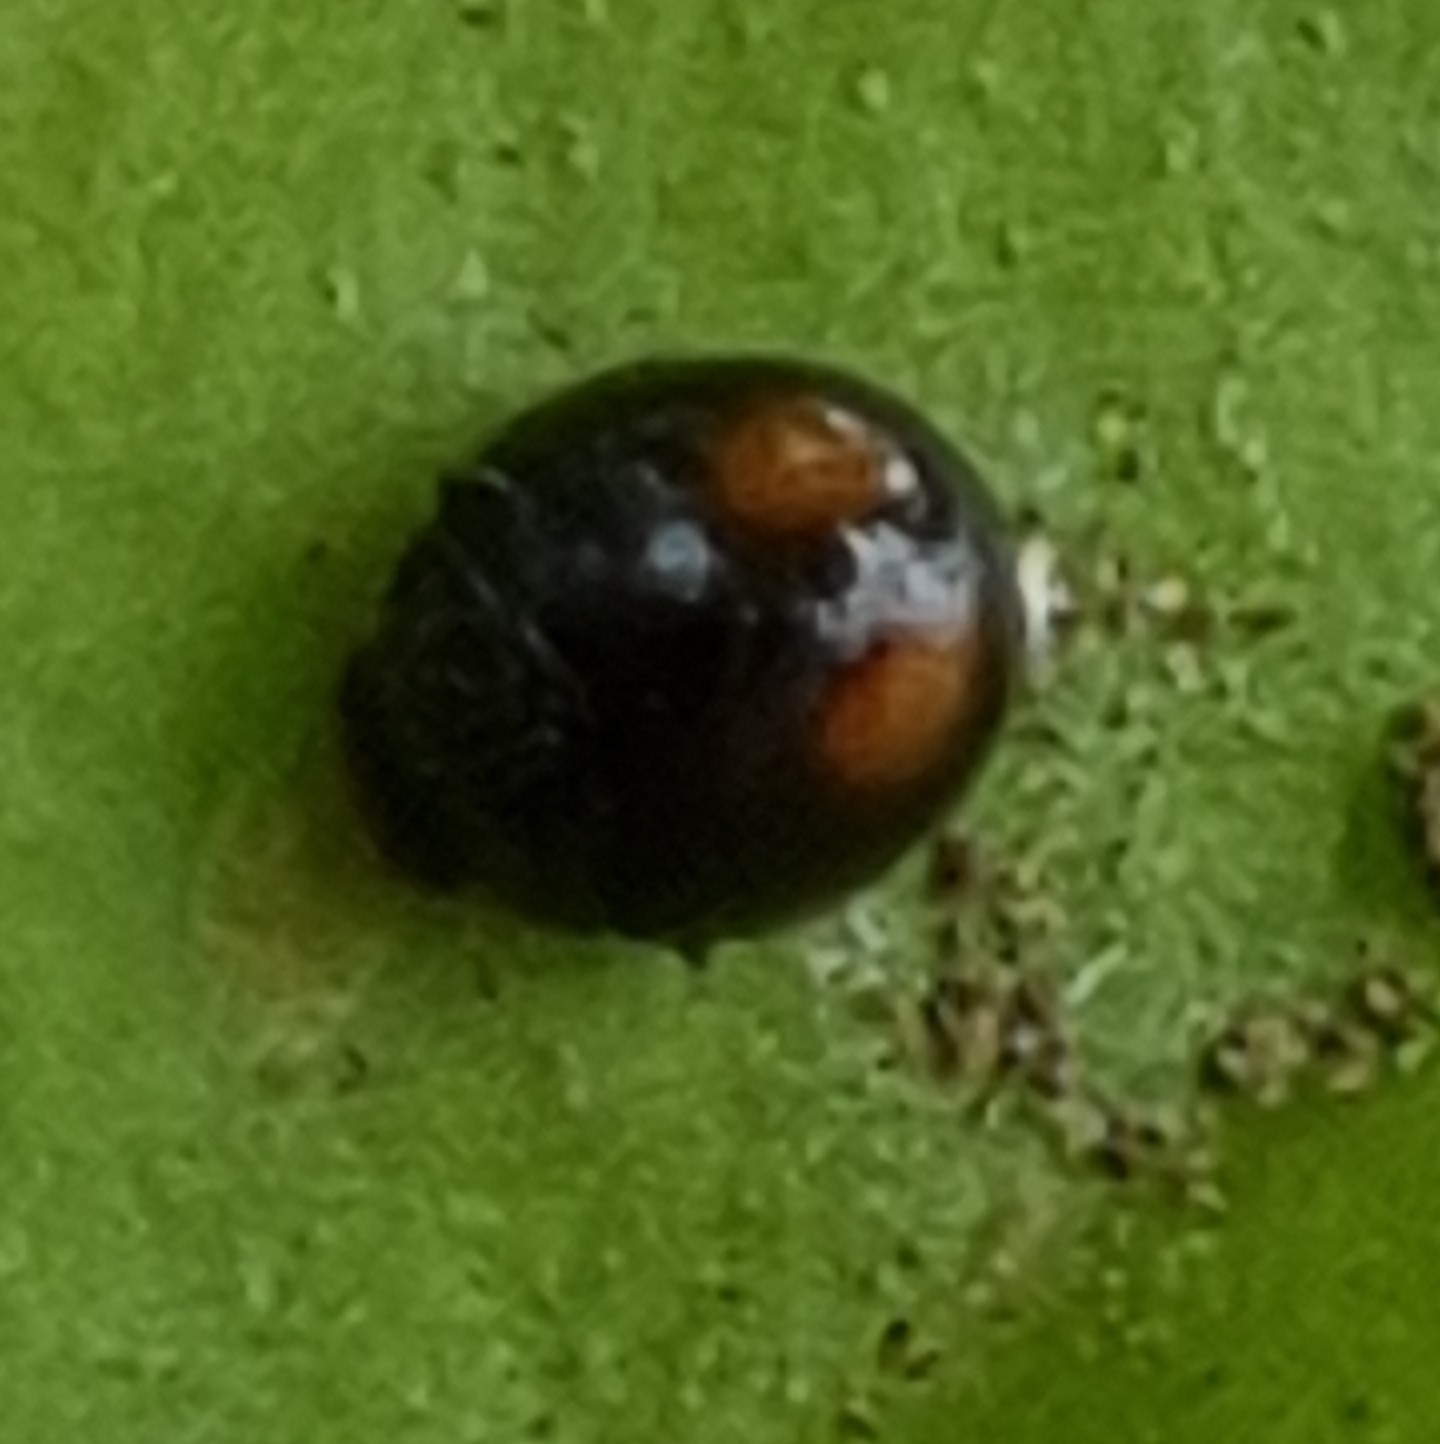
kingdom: Animalia
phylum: Arthropoda
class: Insecta
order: Coleoptera
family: Coccinellidae
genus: Serangium
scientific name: Serangium maculigerum
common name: Lady beetle
